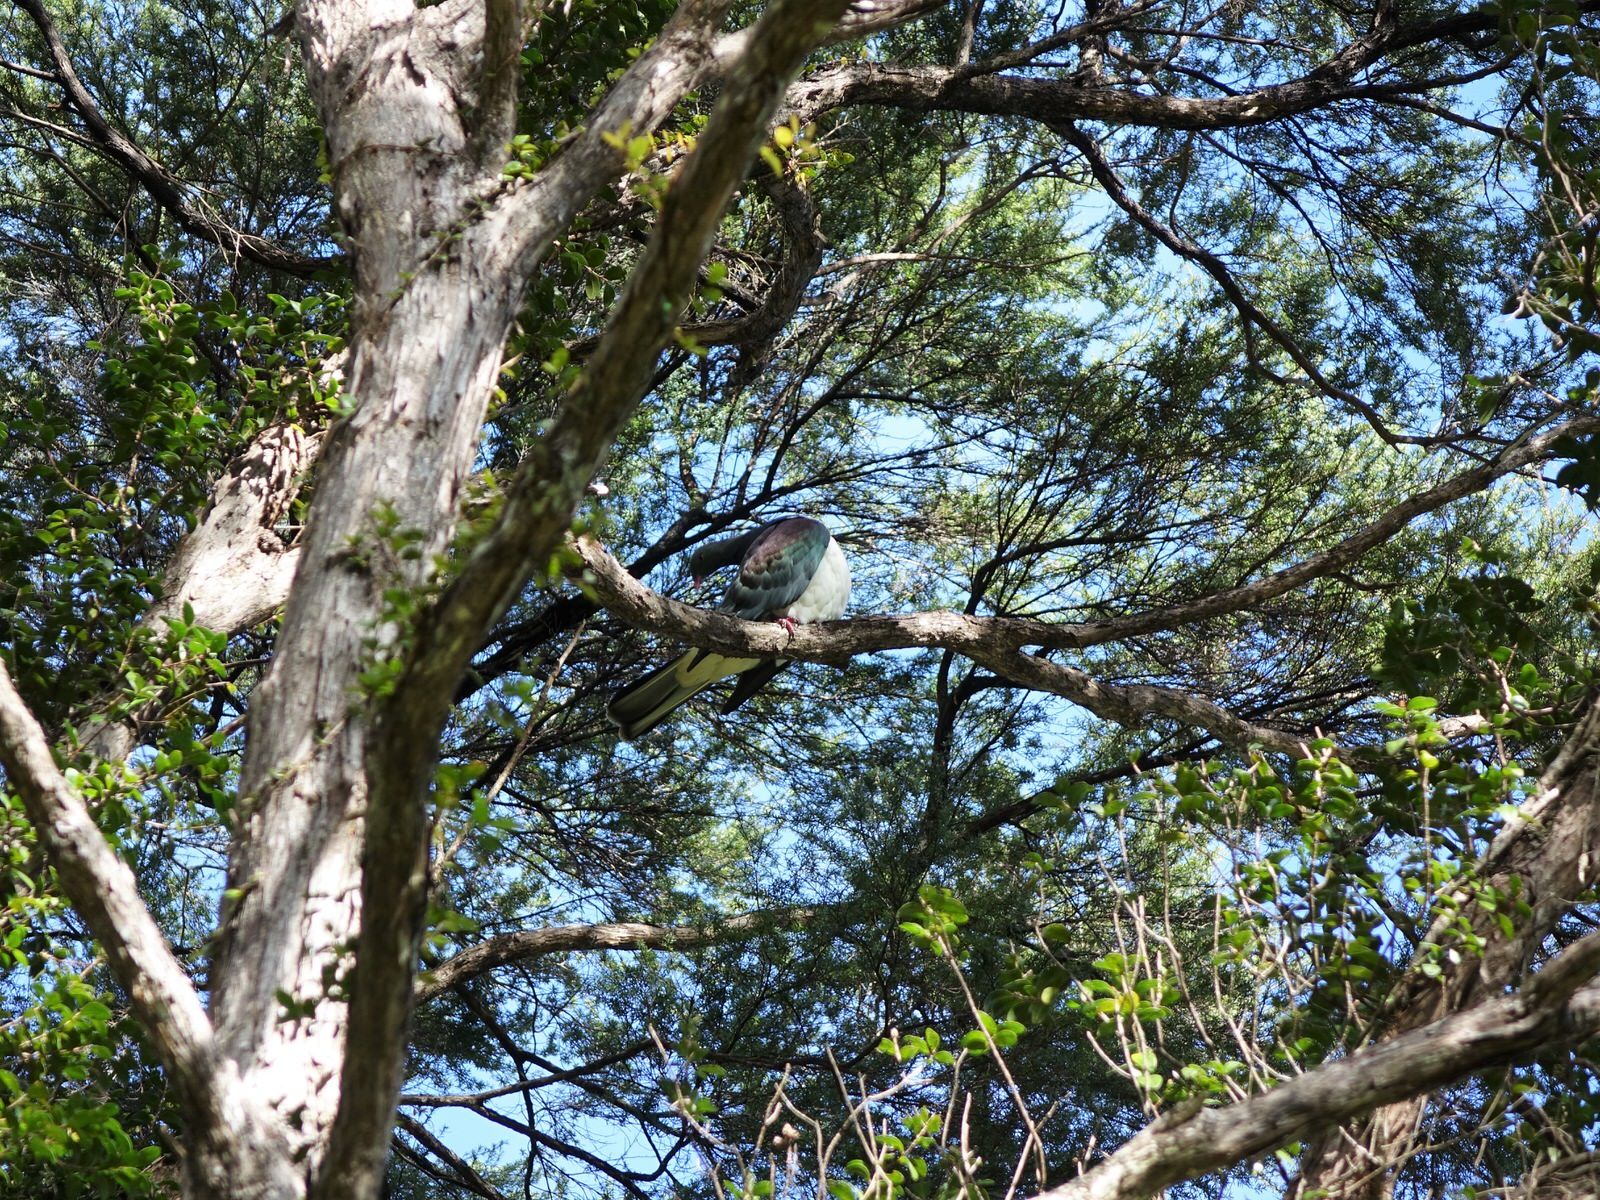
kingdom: Animalia
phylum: Chordata
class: Aves
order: Columbiformes
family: Columbidae
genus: Hemiphaga
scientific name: Hemiphaga novaeseelandiae
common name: New zealand pigeon
